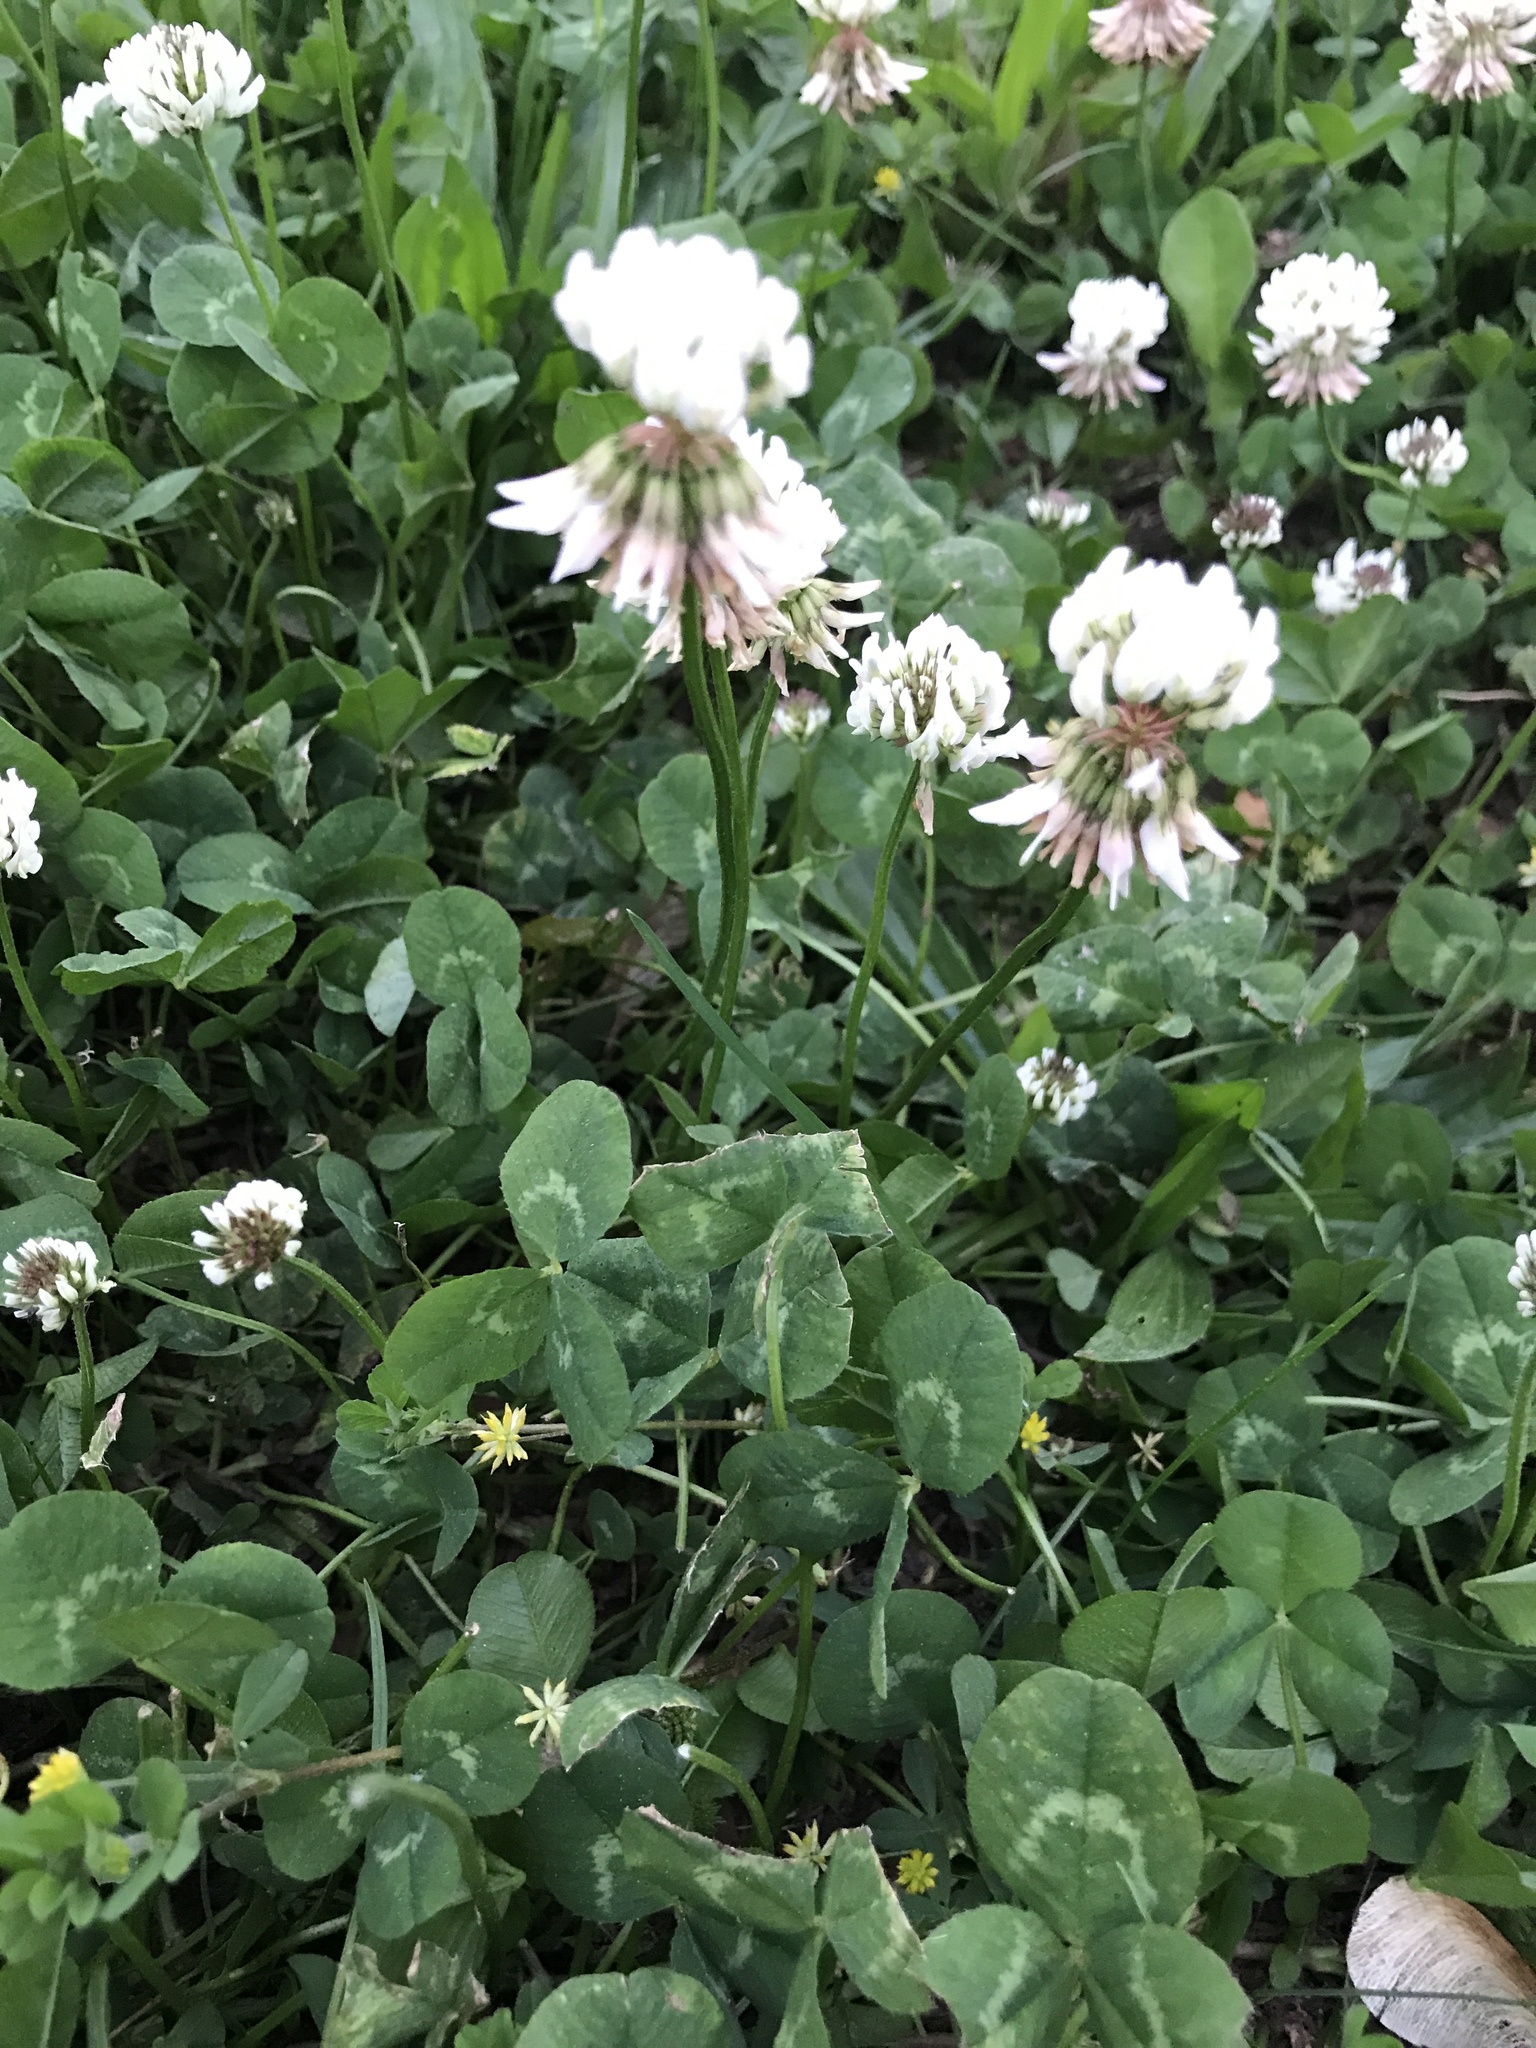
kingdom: Plantae
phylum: Tracheophyta
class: Magnoliopsida
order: Fabales
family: Fabaceae
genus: Trifolium
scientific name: Trifolium repens
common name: White clover
